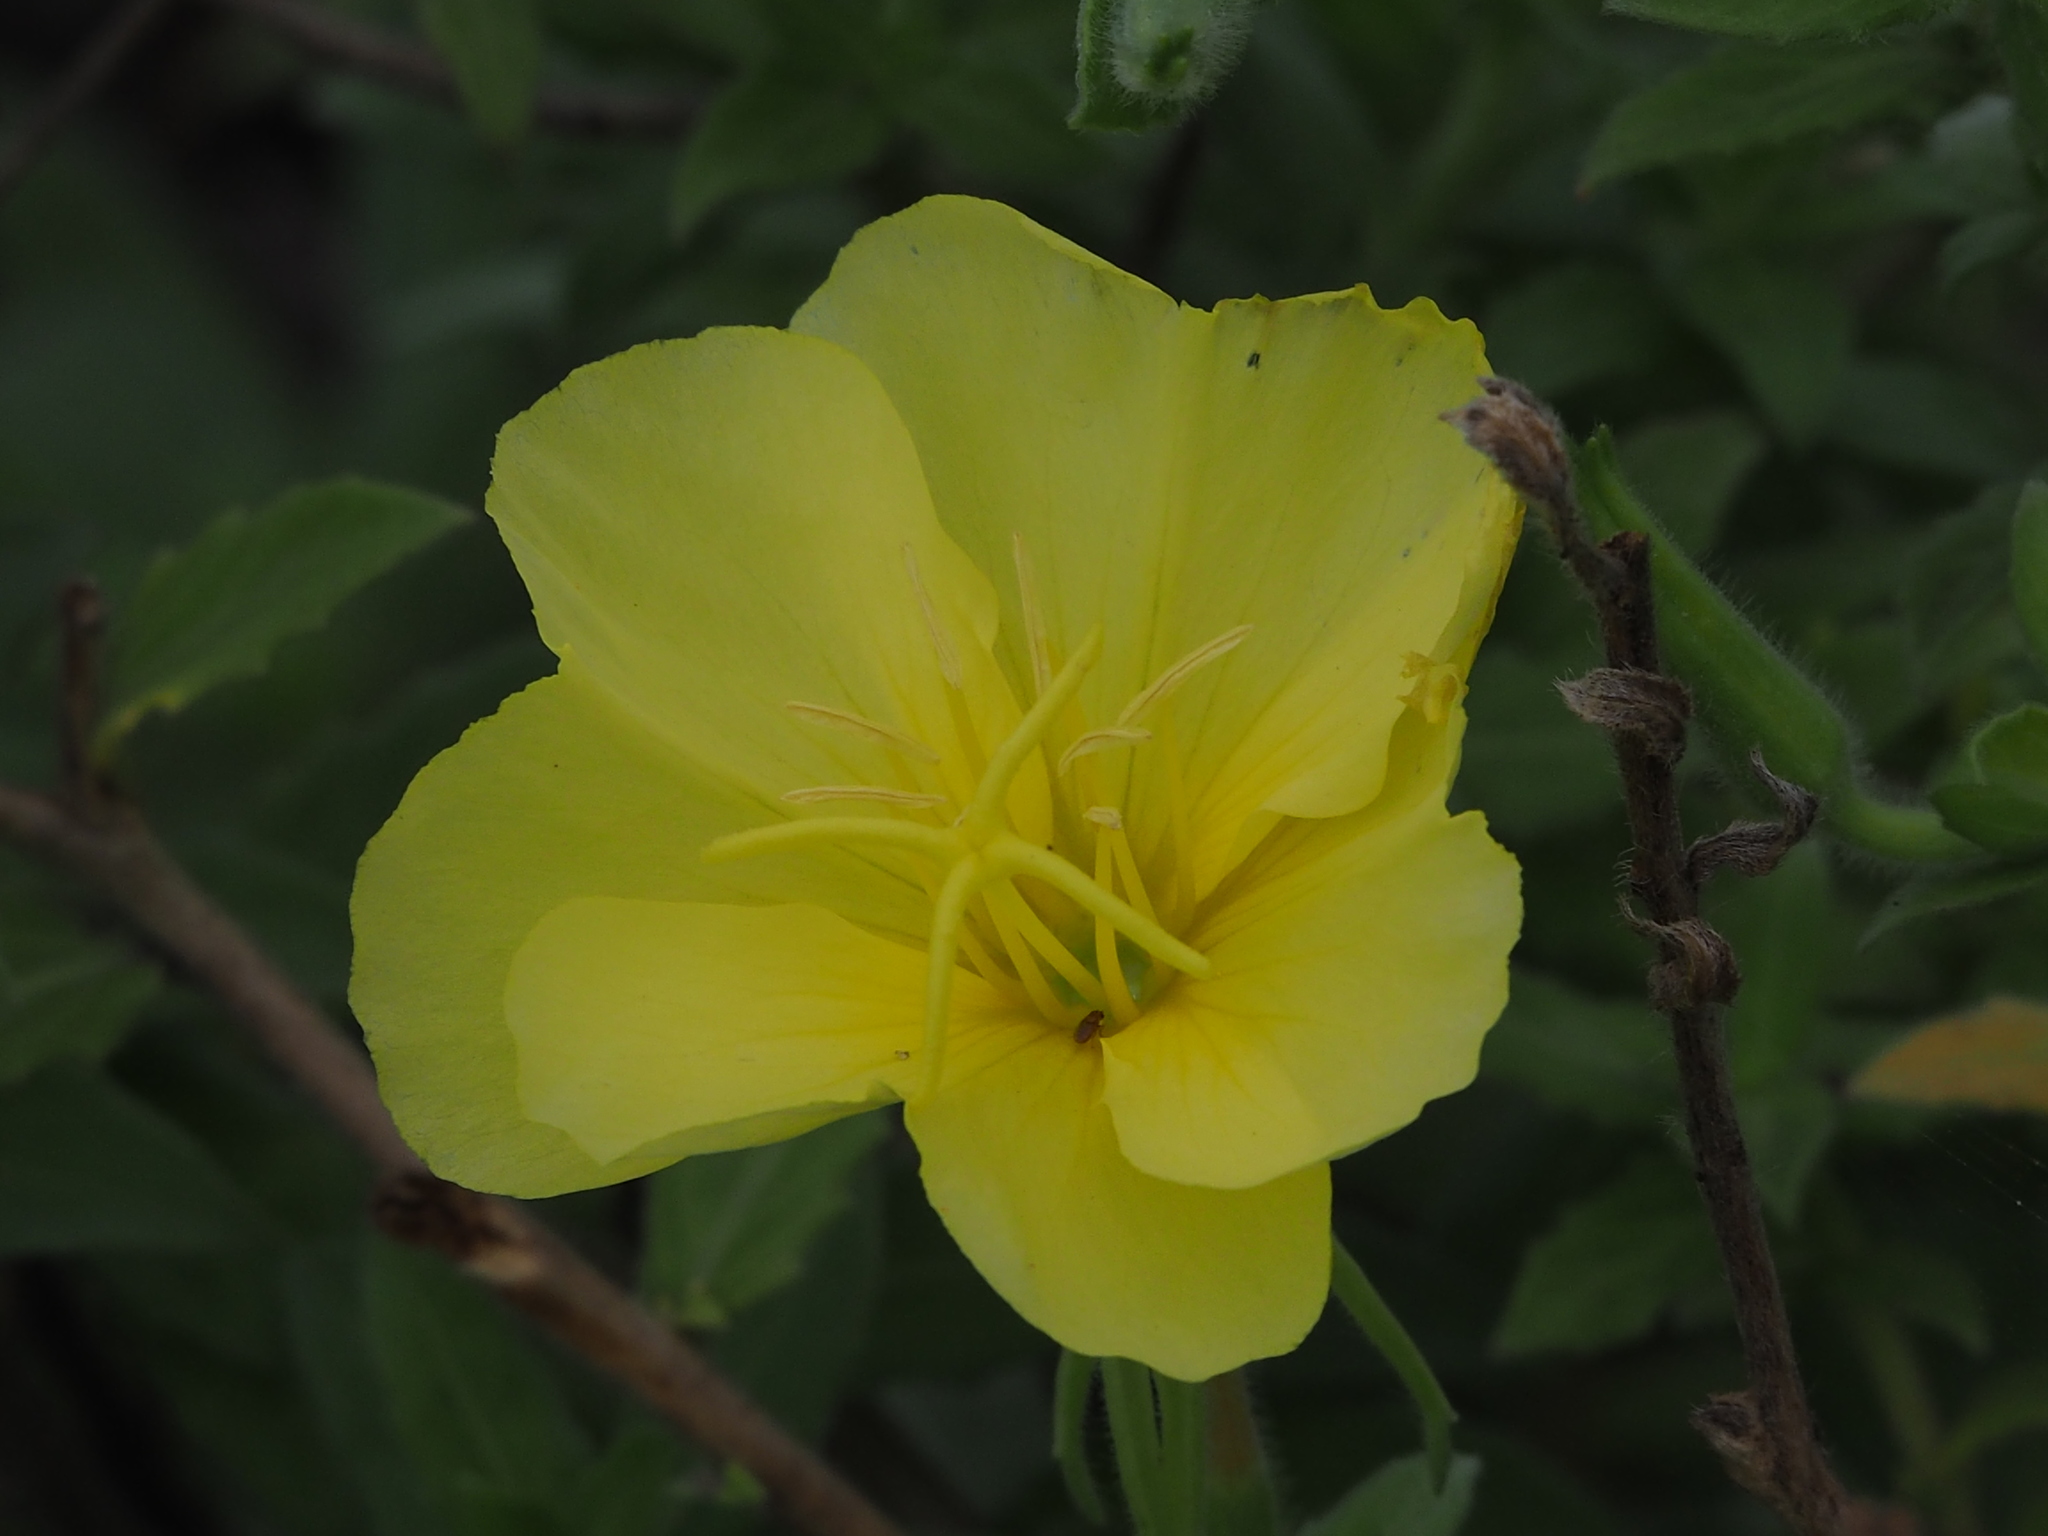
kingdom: Plantae
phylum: Tracheophyta
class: Magnoliopsida
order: Myrtales
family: Onagraceae
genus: Oenothera
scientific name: Oenothera drummondii
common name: Beach evening-primrose
